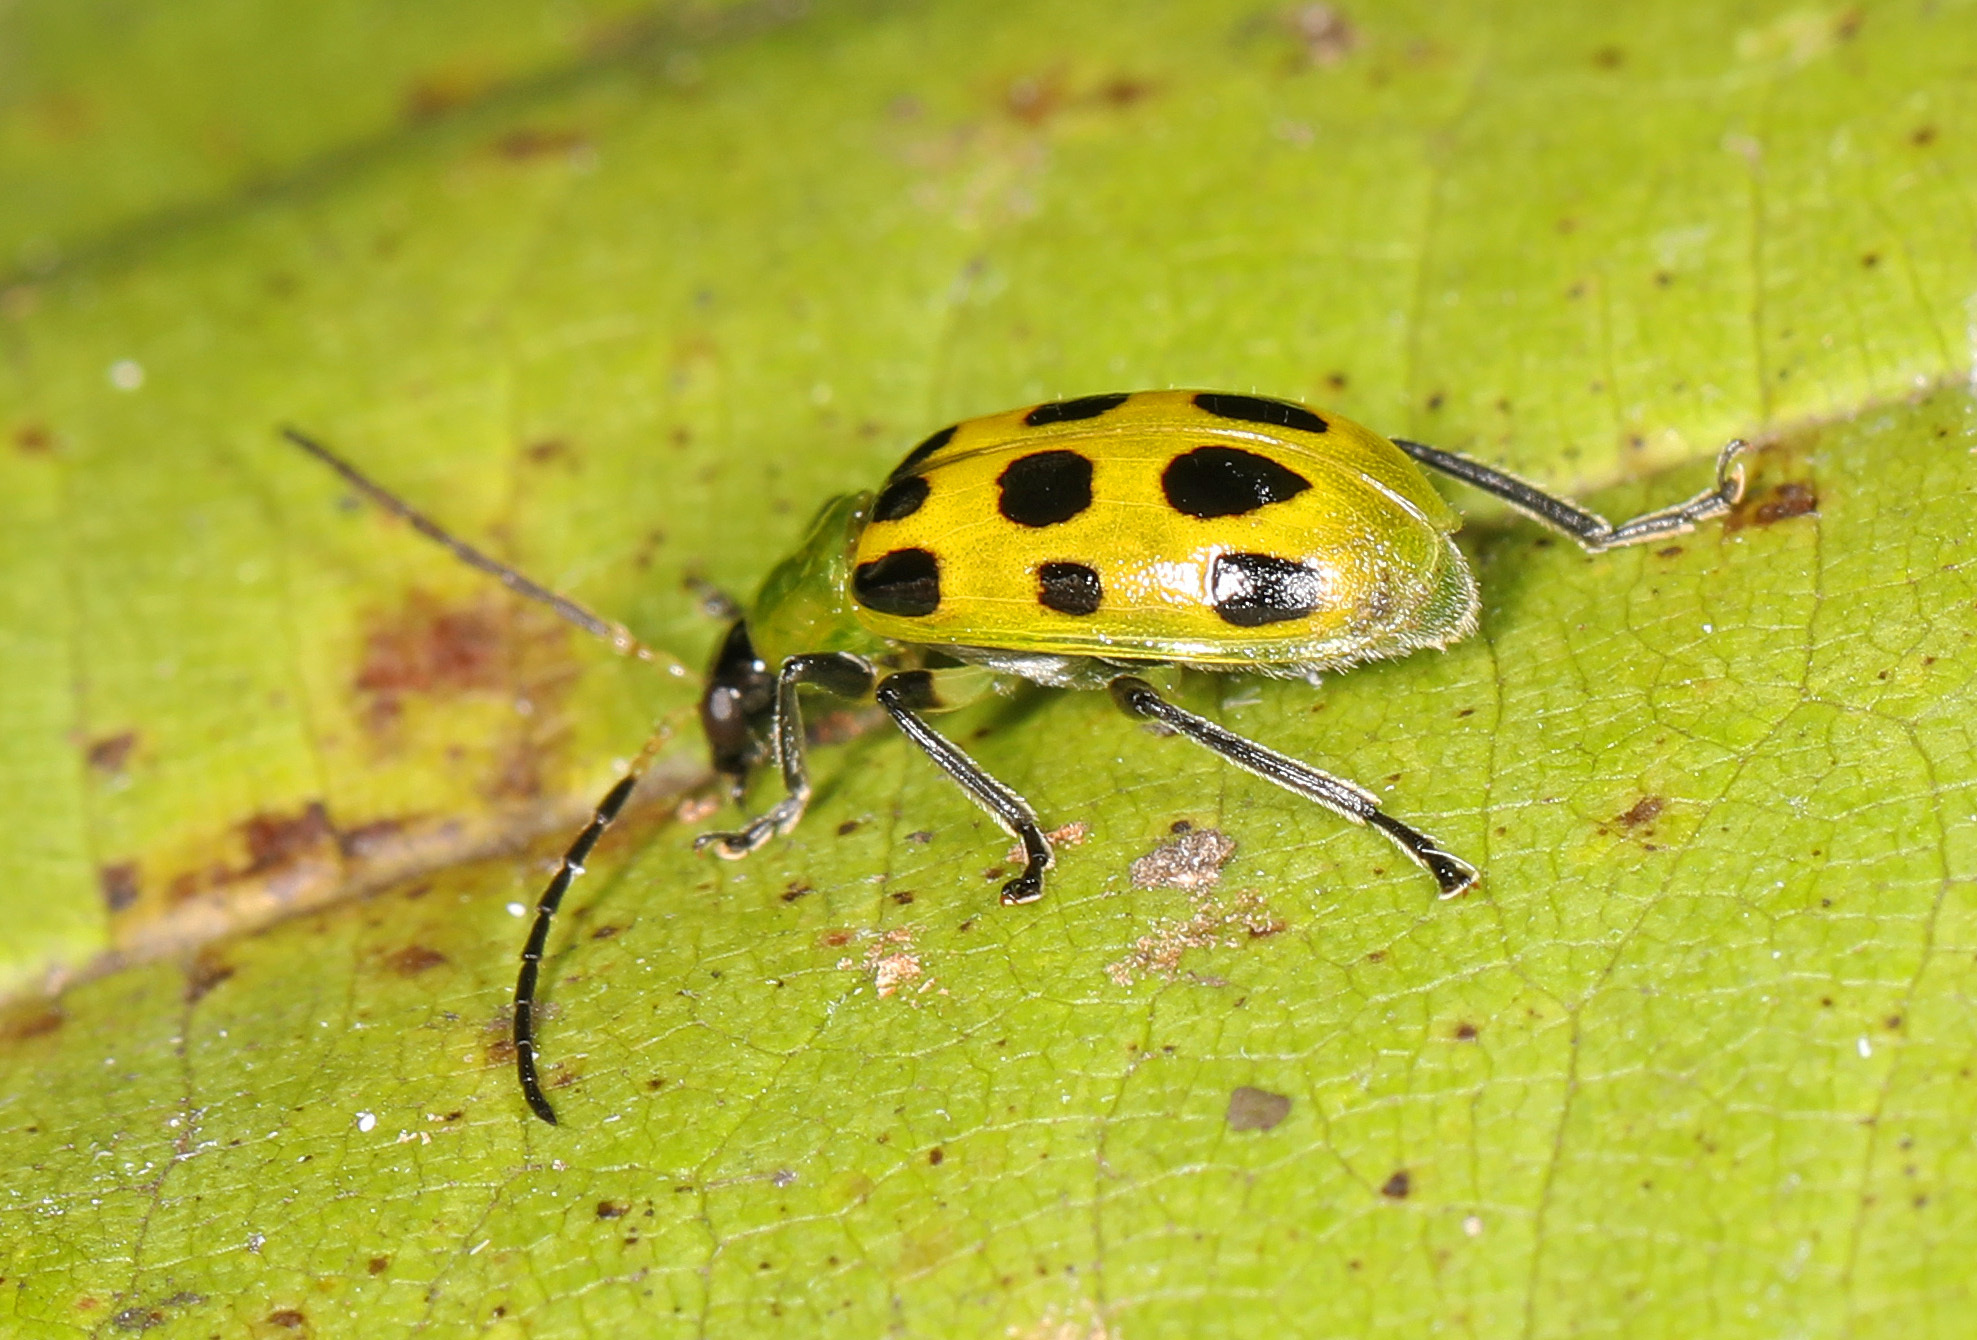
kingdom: Animalia
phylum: Arthropoda
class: Insecta
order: Coleoptera
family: Chrysomelidae
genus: Diabrotica
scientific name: Diabrotica undecimpunctata
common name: Spotted cucumber beetle
